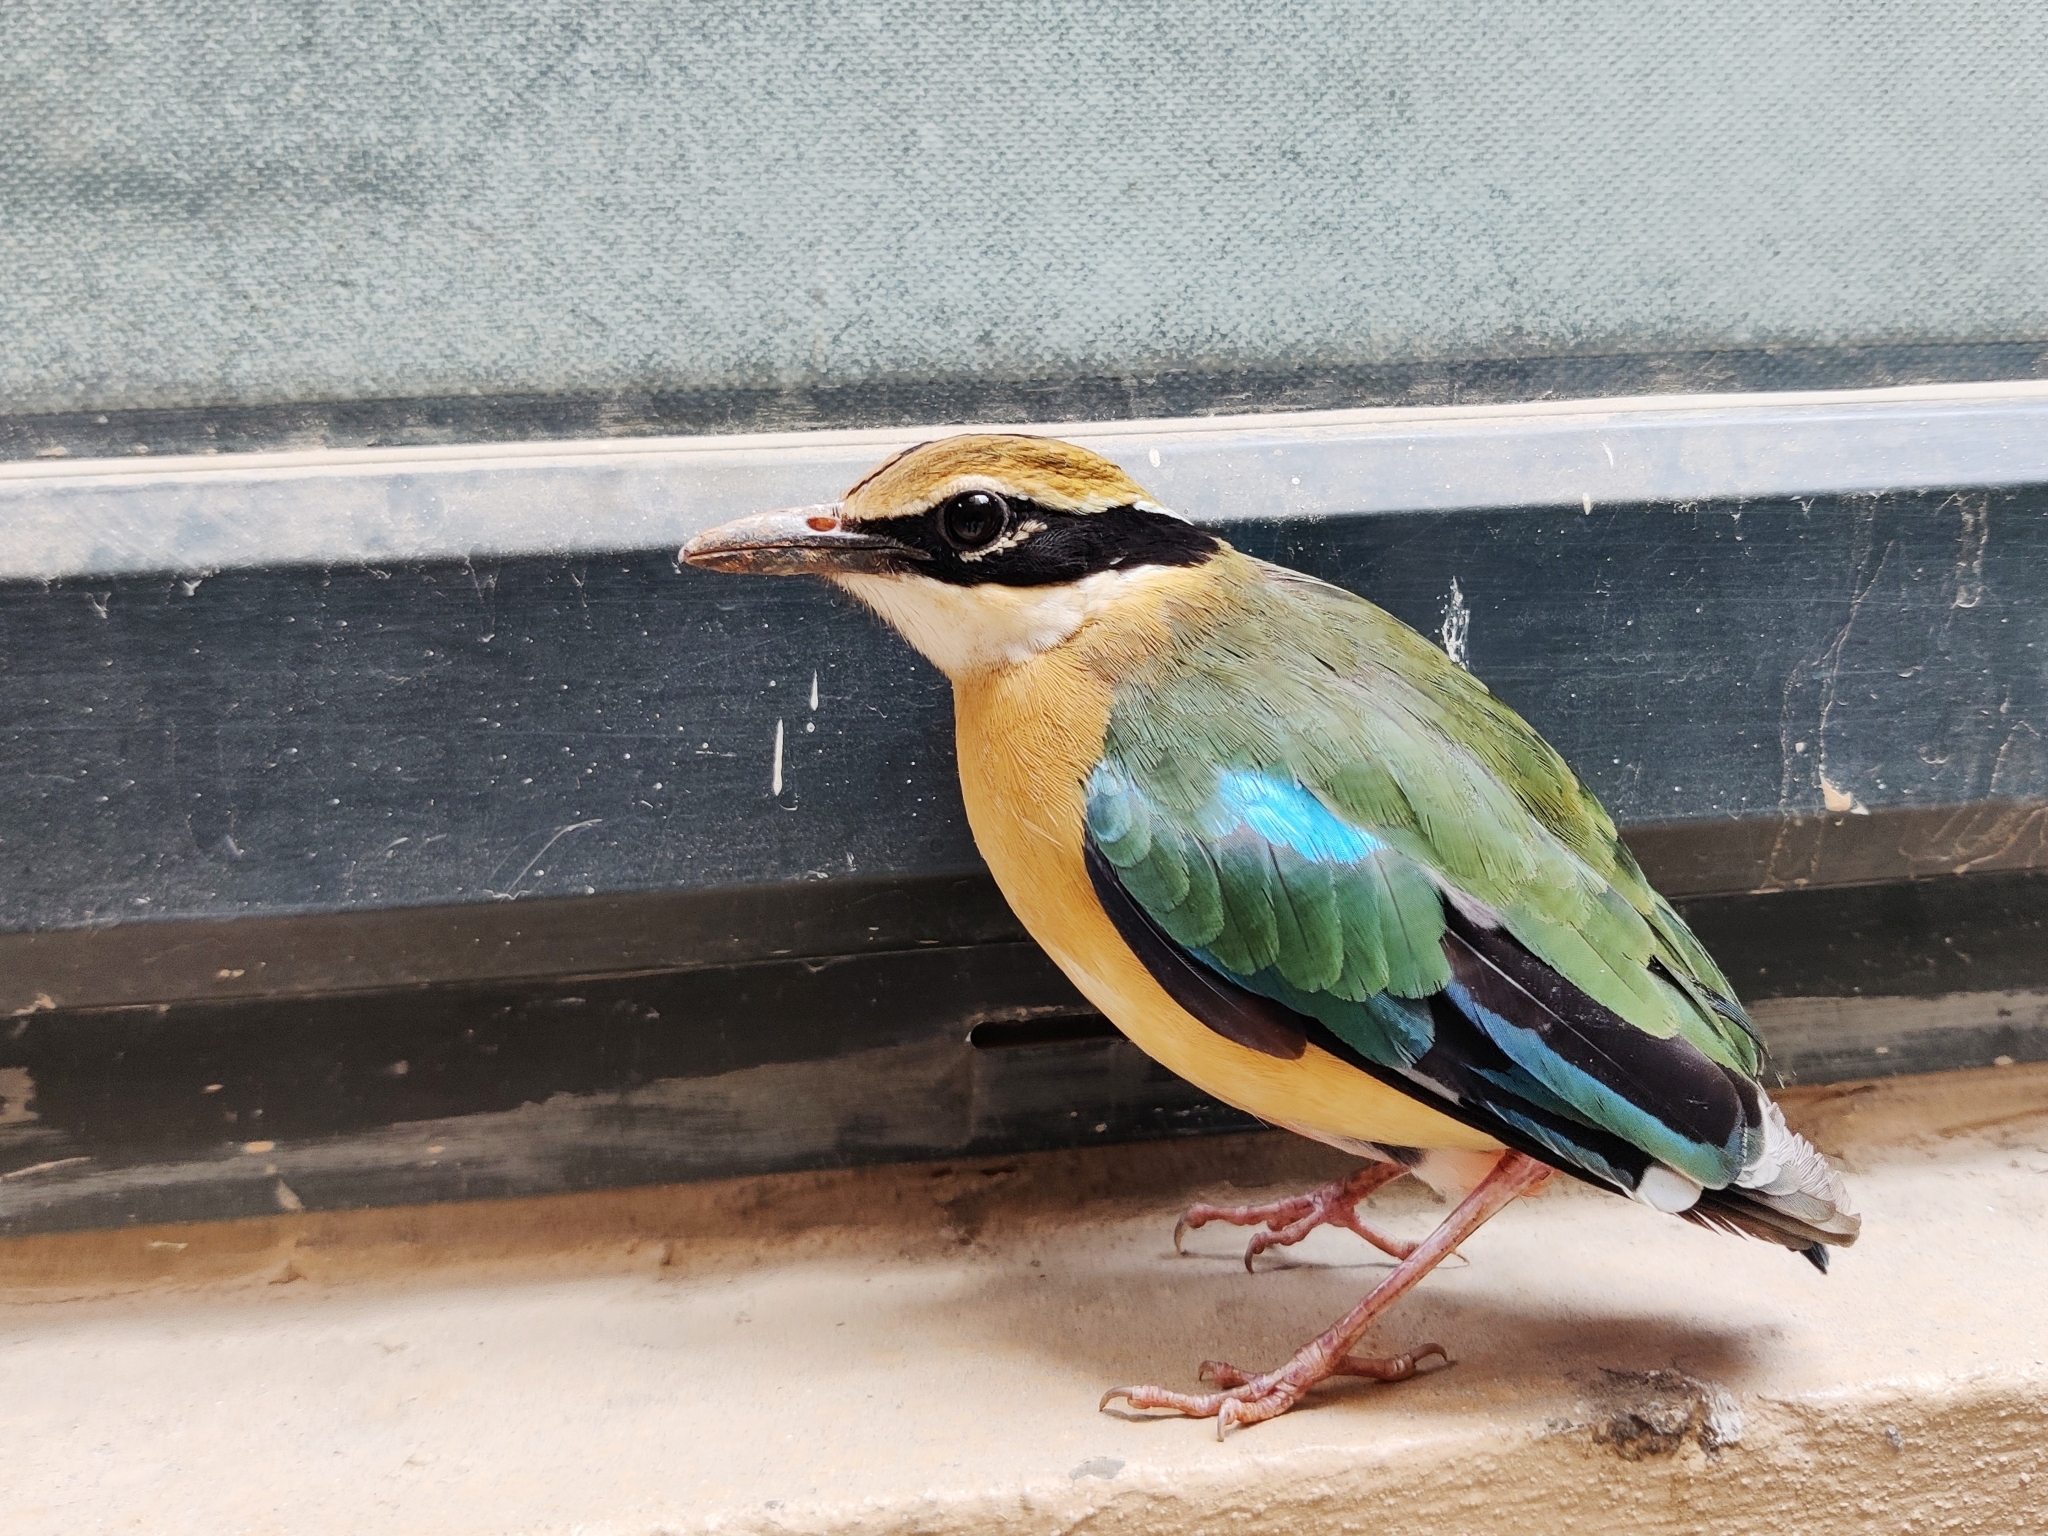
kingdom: Animalia
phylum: Chordata
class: Aves
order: Passeriformes
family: Pittidae
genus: Pitta
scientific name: Pitta brachyura
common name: Indian pitta
